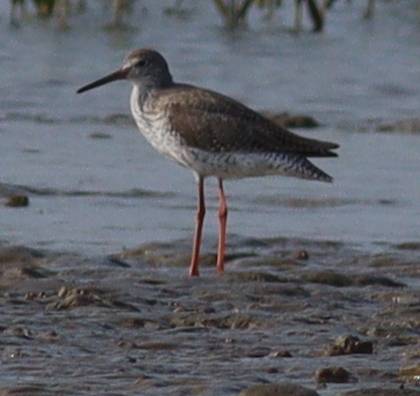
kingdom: Animalia
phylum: Chordata
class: Aves
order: Charadriiformes
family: Scolopacidae
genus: Tringa
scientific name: Tringa totanus
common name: Common redshank
